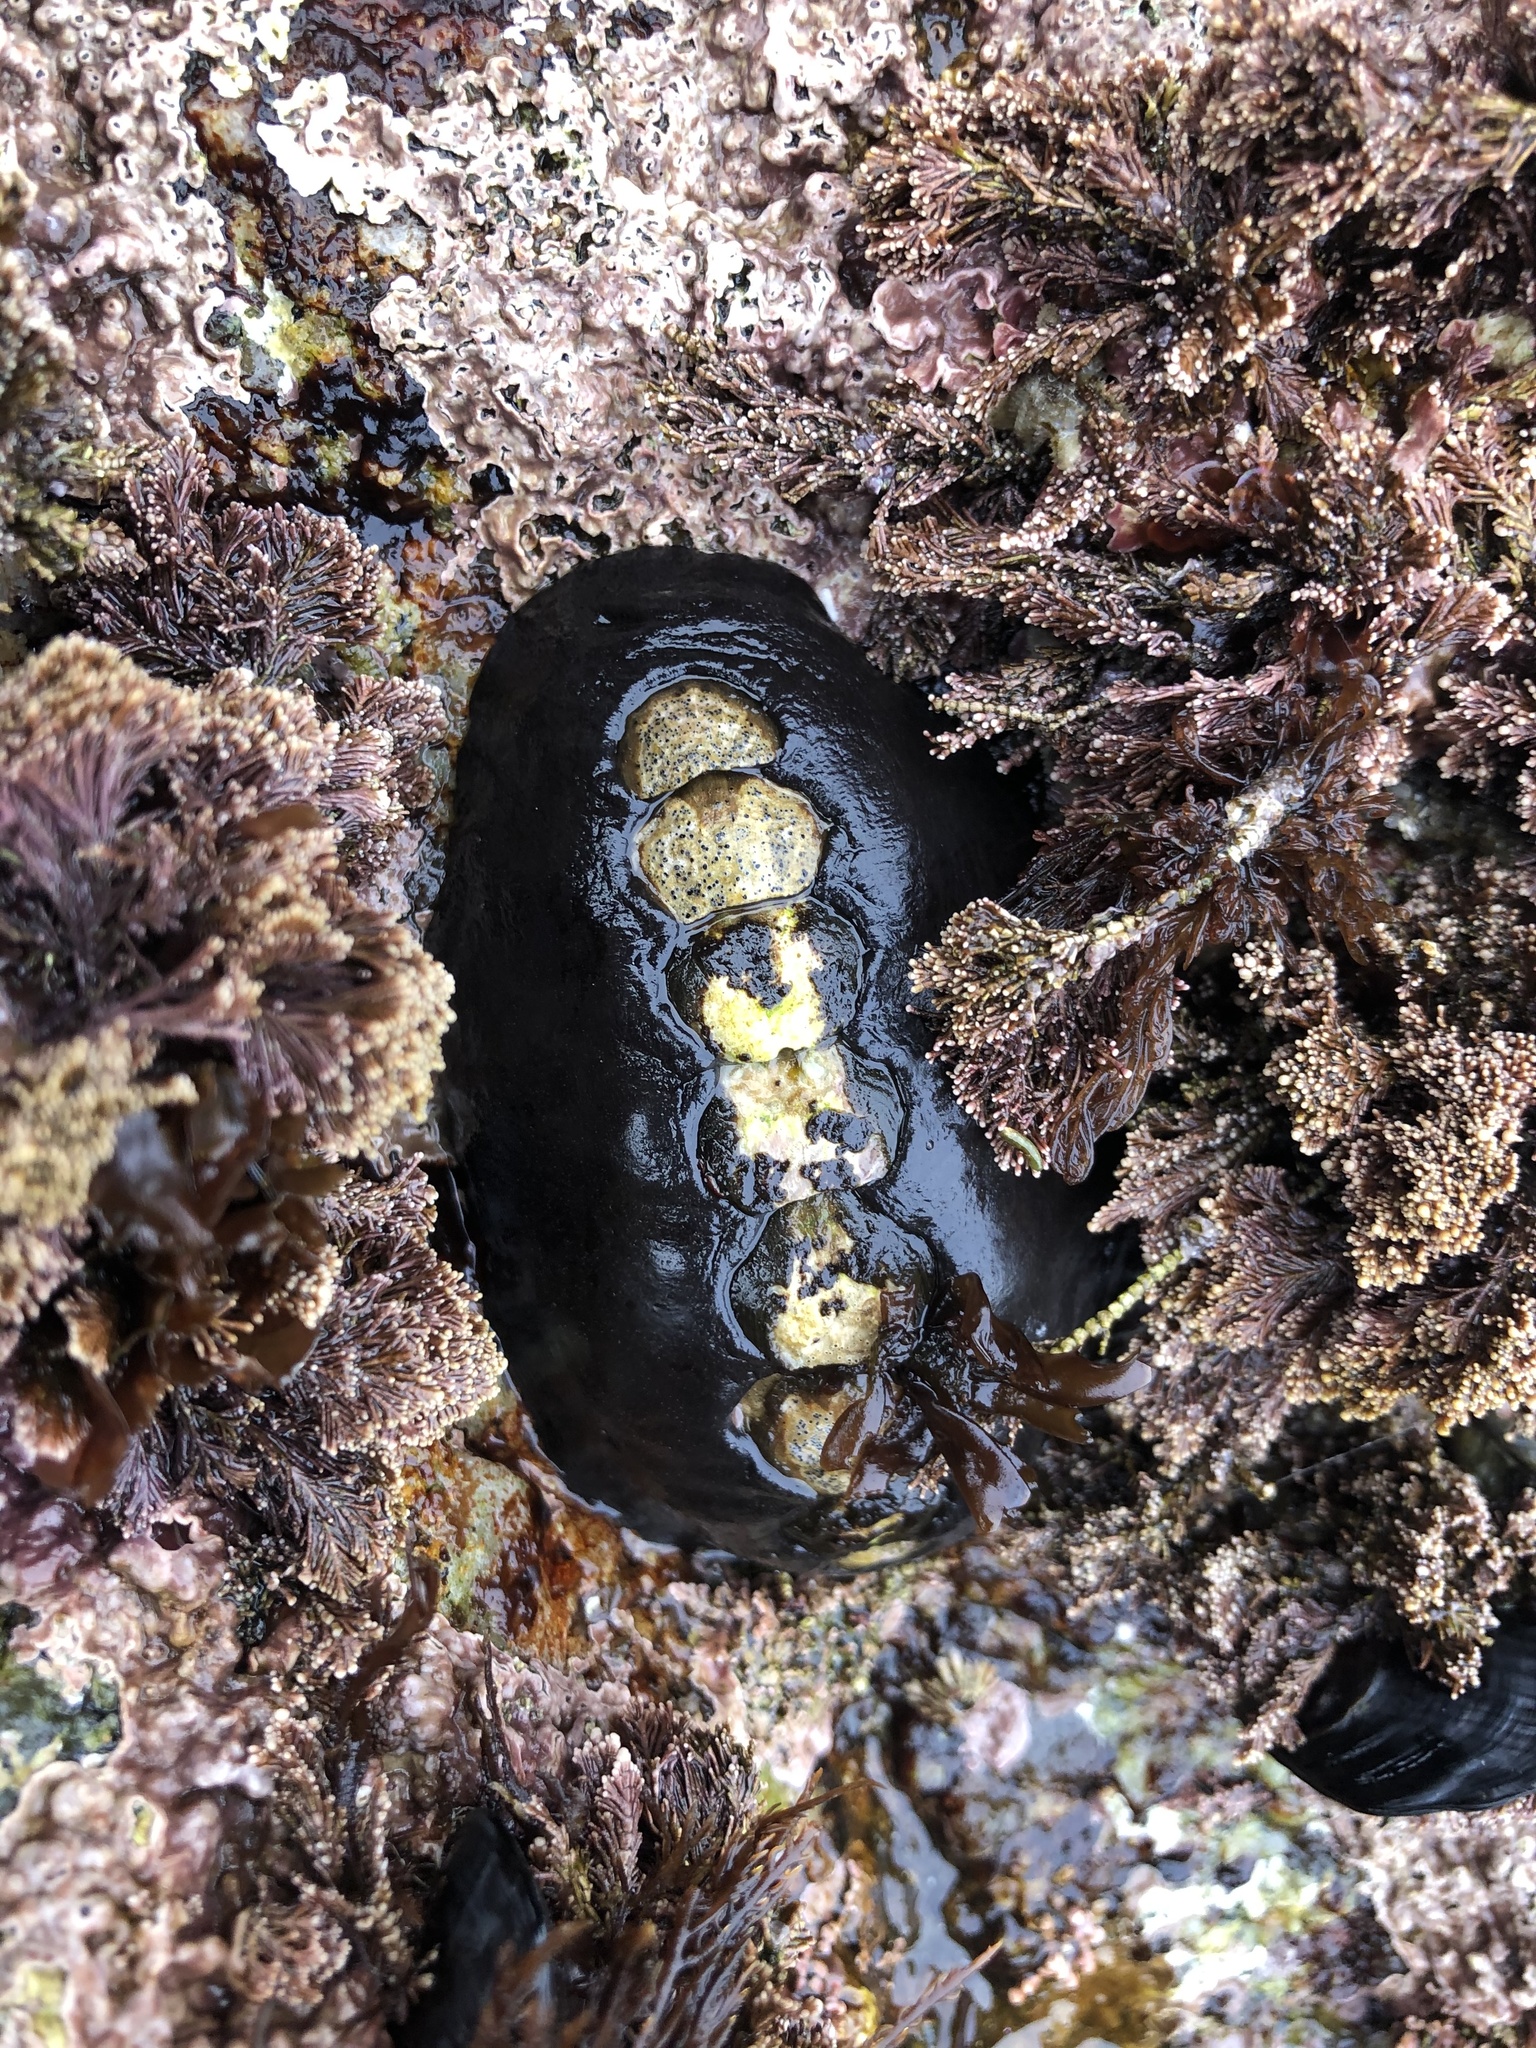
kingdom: Animalia
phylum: Mollusca
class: Polyplacophora
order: Chitonida
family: Mopaliidae
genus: Katharina
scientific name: Katharina tunicata
